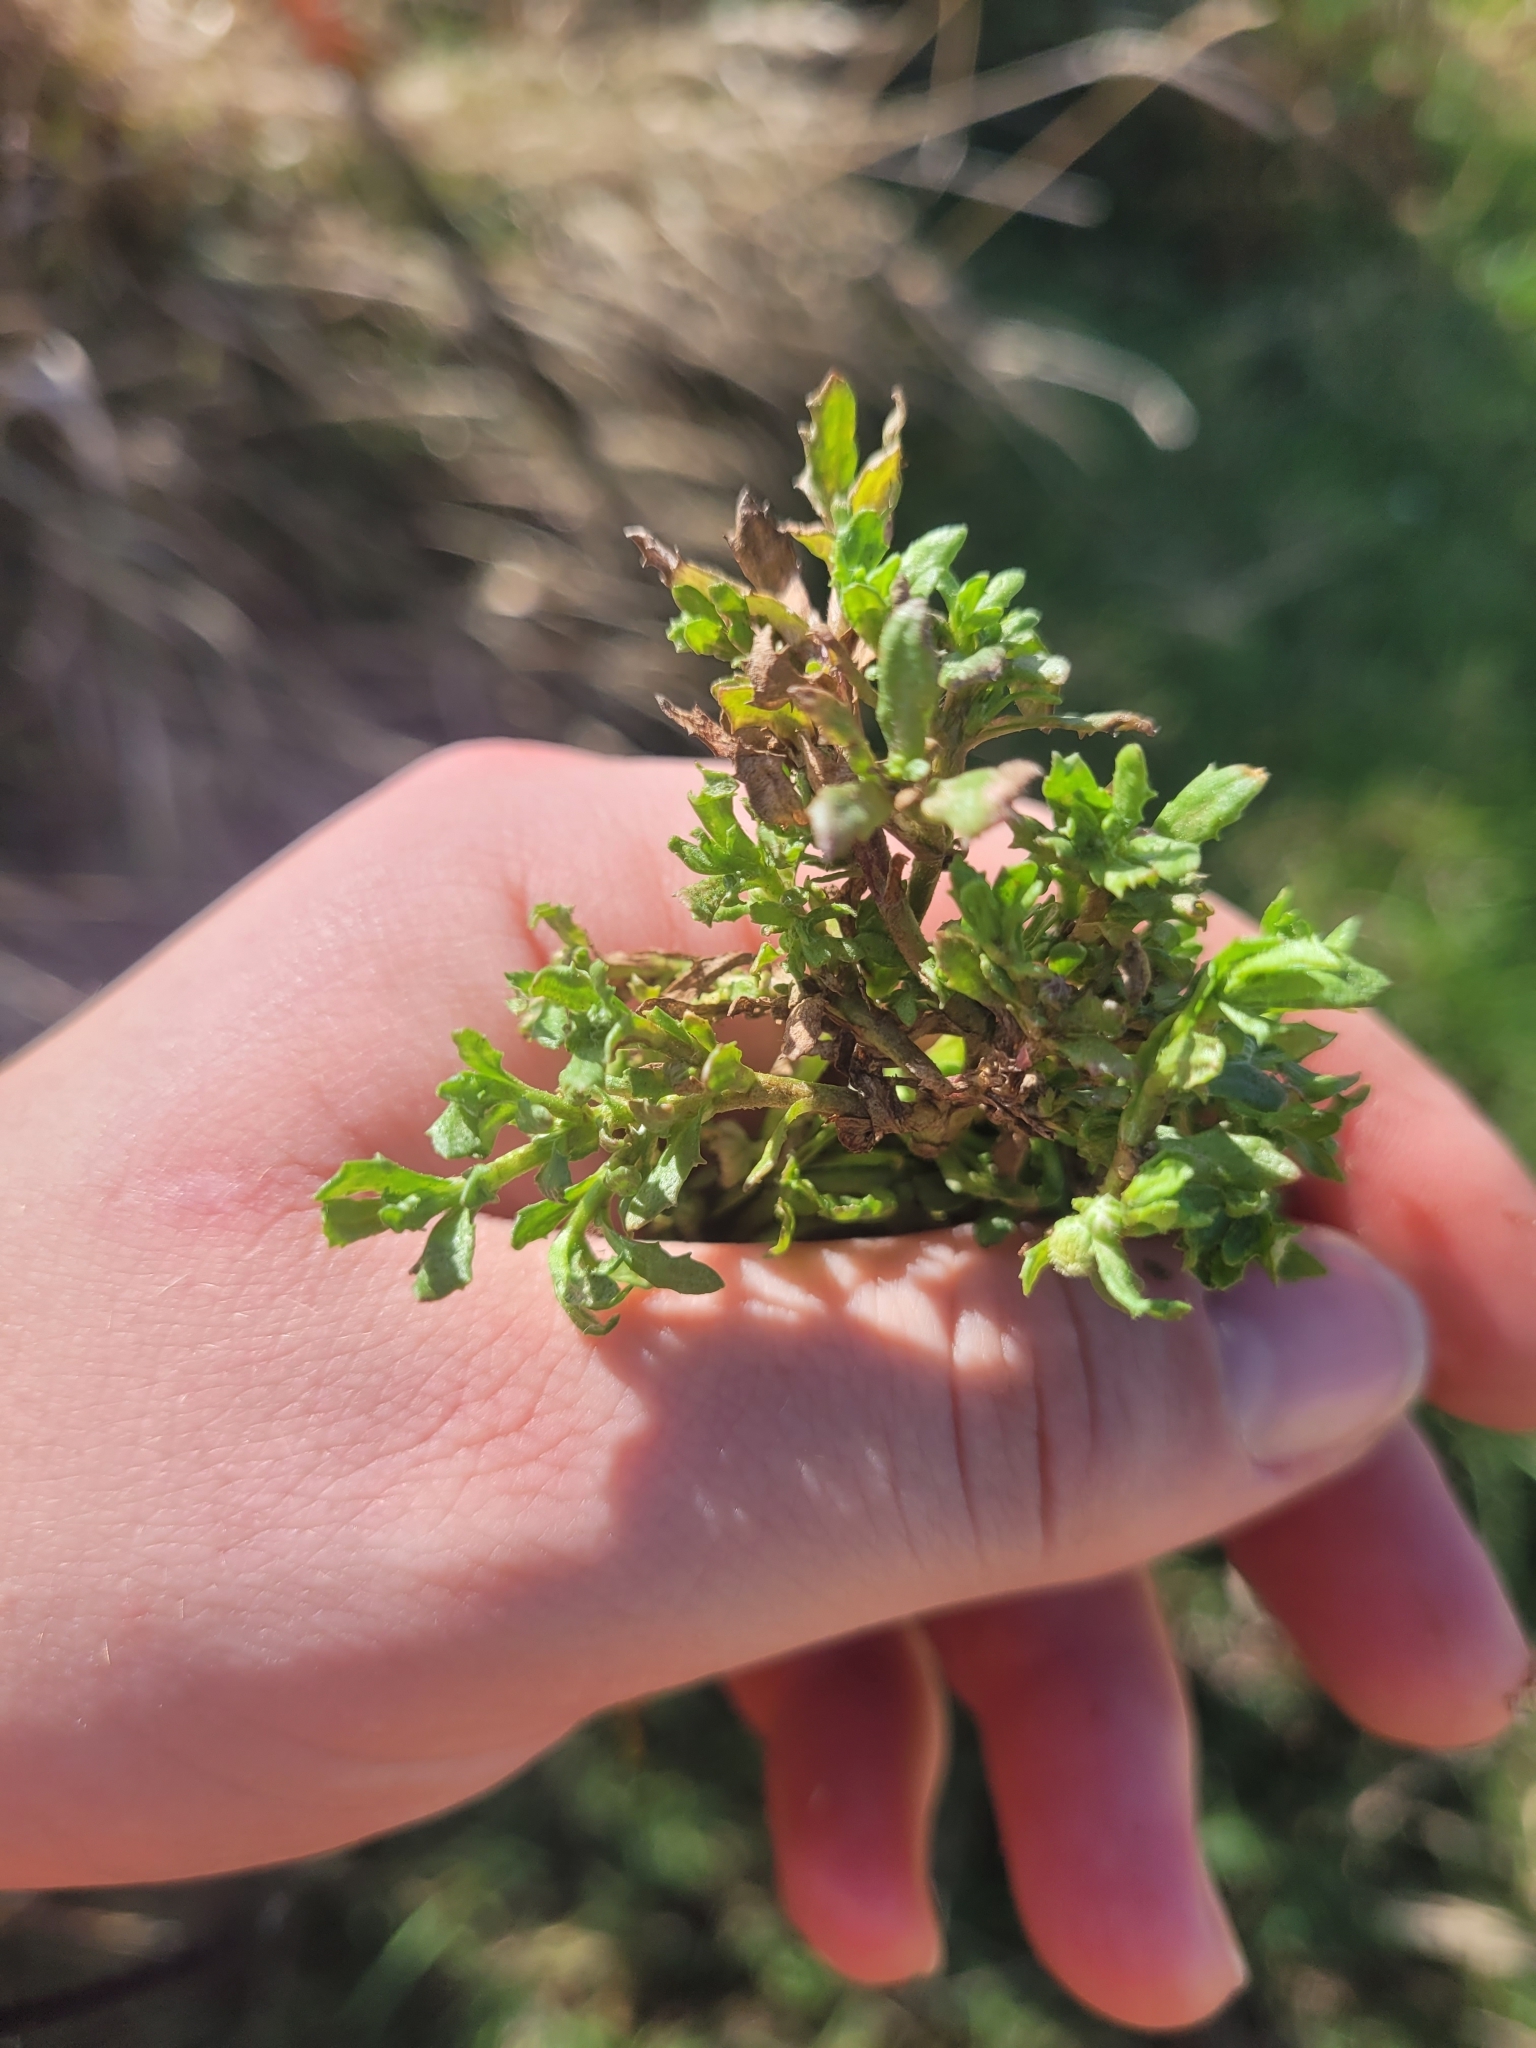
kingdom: Plantae
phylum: Tracheophyta
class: Magnoliopsida
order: Brassicales
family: Brassicaceae
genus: Lepidium
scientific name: Lepidium didymum
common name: Lesser swinecress
